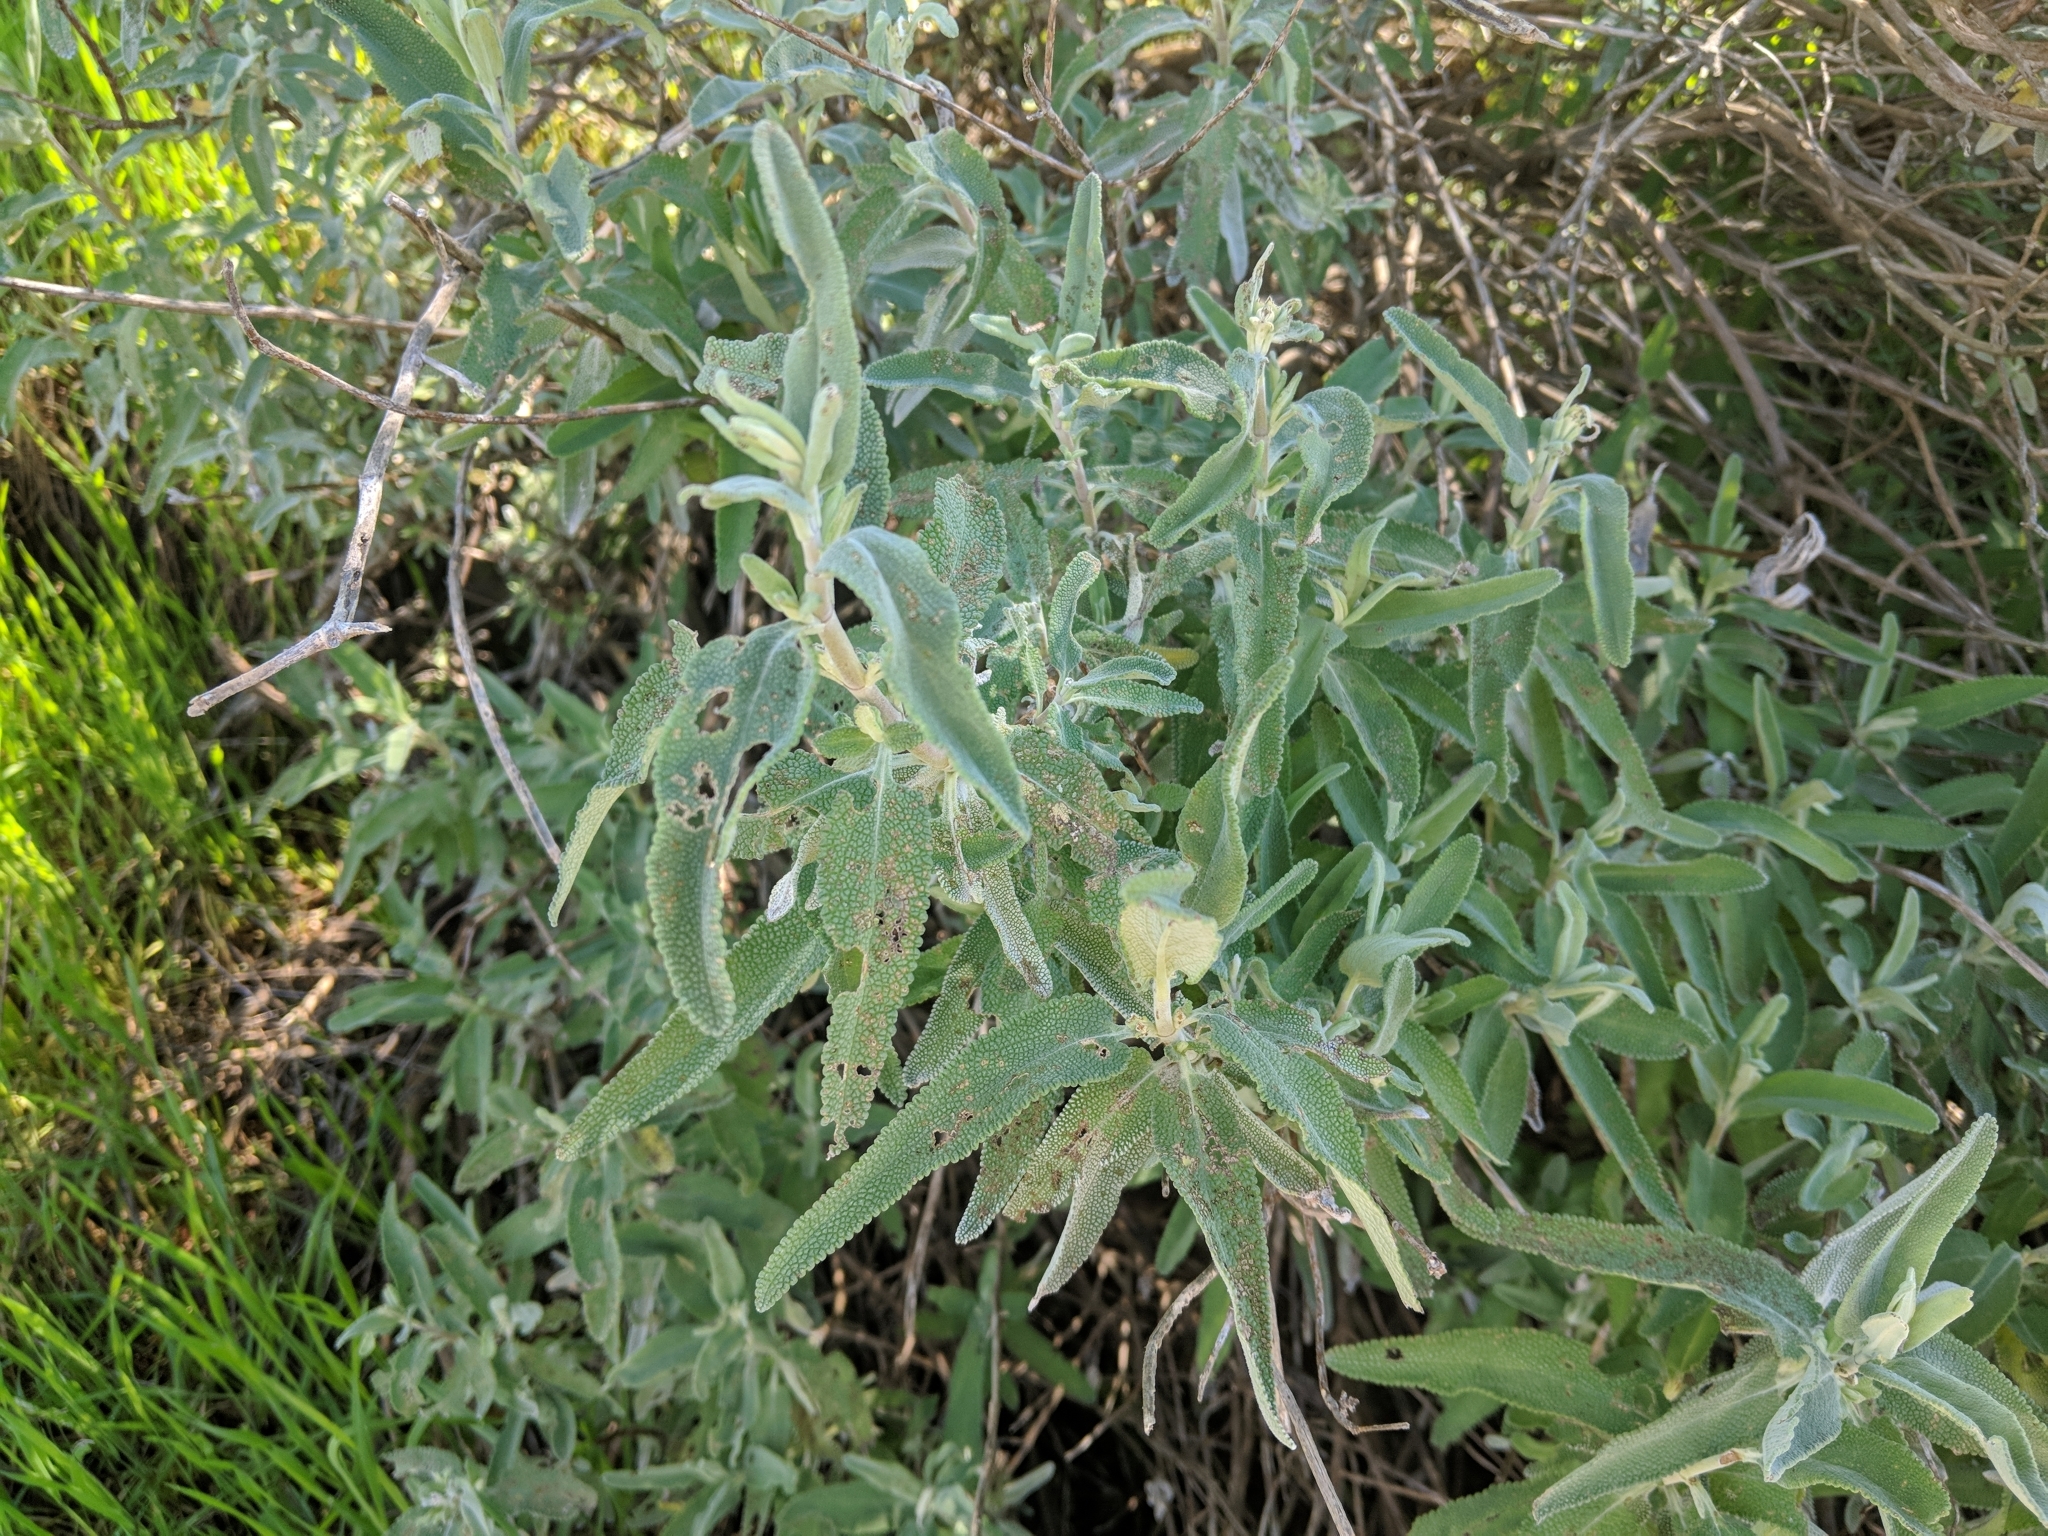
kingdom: Plantae
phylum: Tracheophyta
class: Magnoliopsida
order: Lamiales
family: Lamiaceae
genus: Salvia
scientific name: Salvia leucophylla
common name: Purple sage
